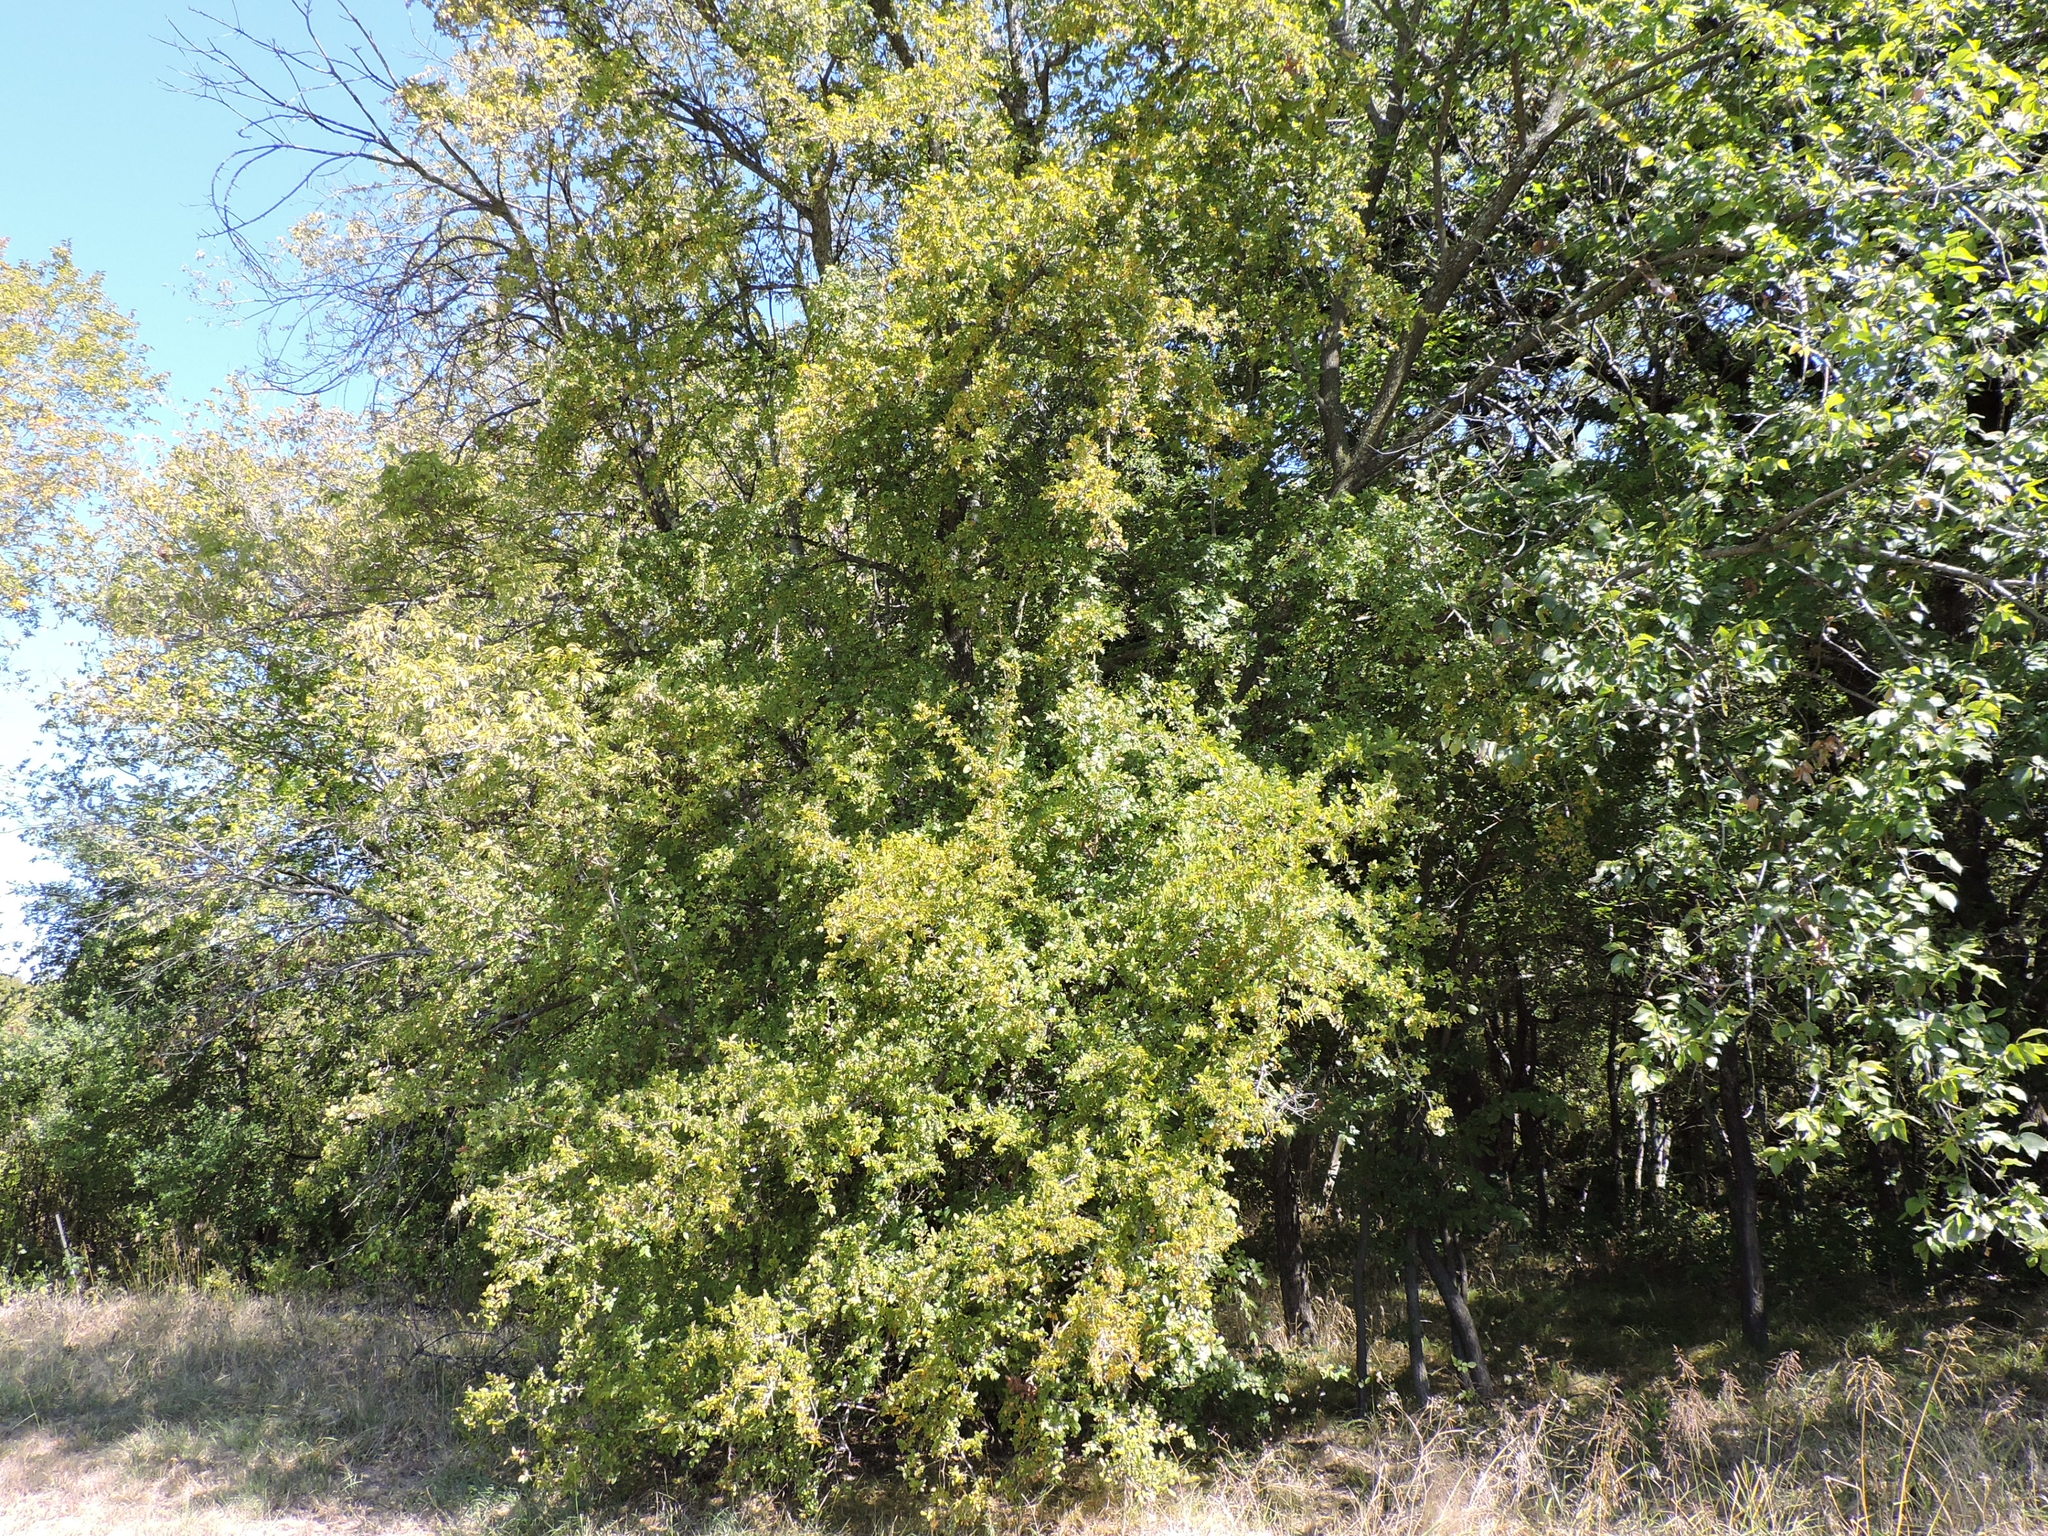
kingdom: Plantae
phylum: Tracheophyta
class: Magnoliopsida
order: Rosales
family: Ulmaceae
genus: Ulmus
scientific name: Ulmus crassifolia
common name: Basket elm
